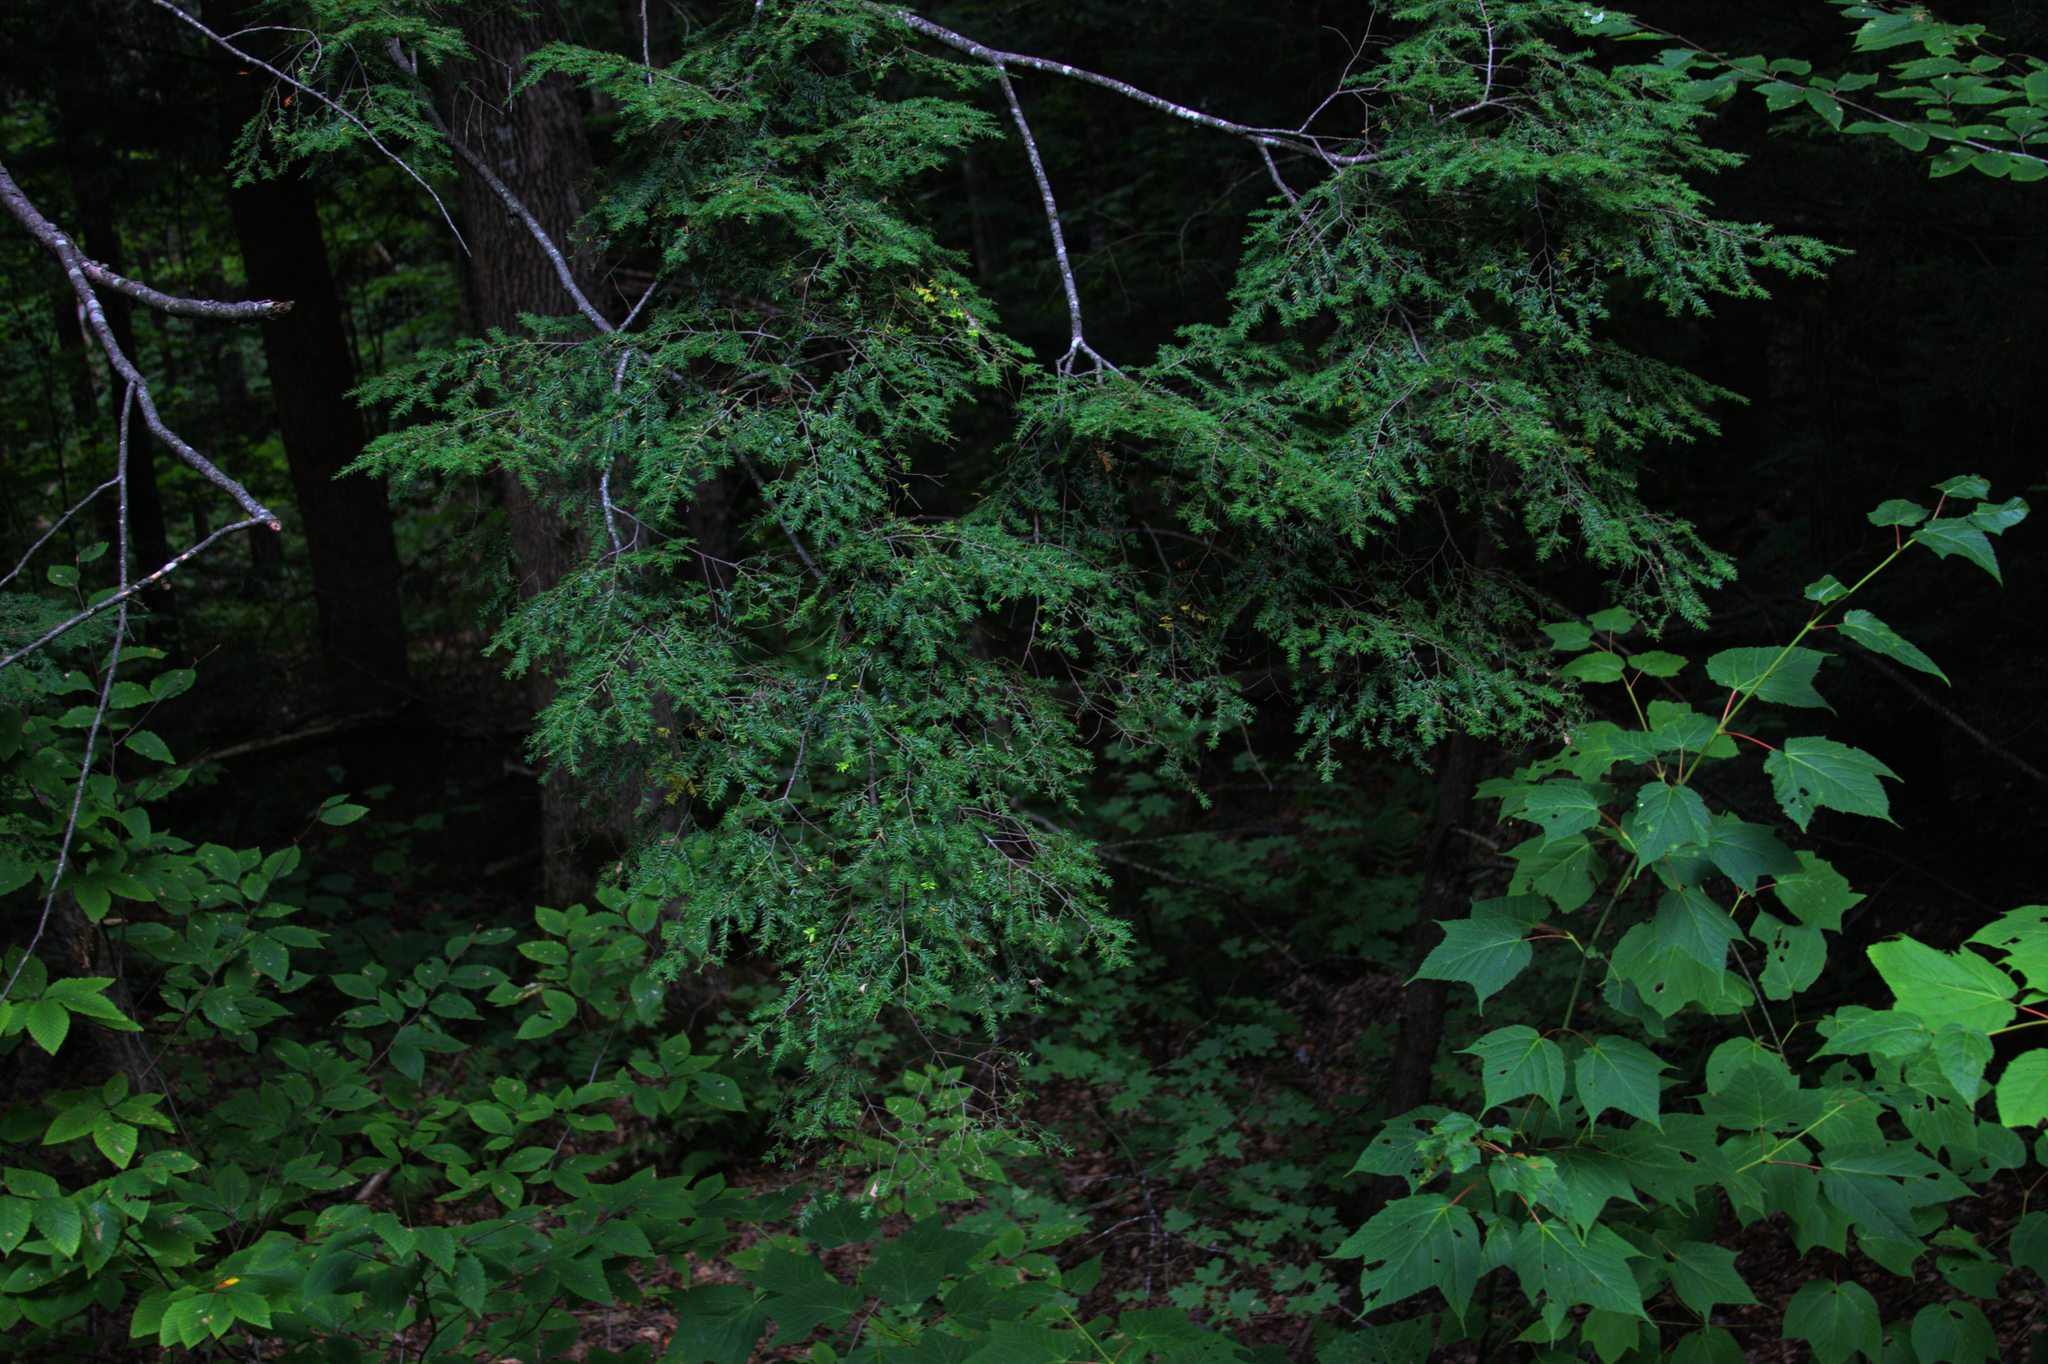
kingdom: Plantae
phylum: Tracheophyta
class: Magnoliopsida
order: Sapindales
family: Sapindaceae
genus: Acer
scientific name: Acer pensylvanicum
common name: Moosewood
